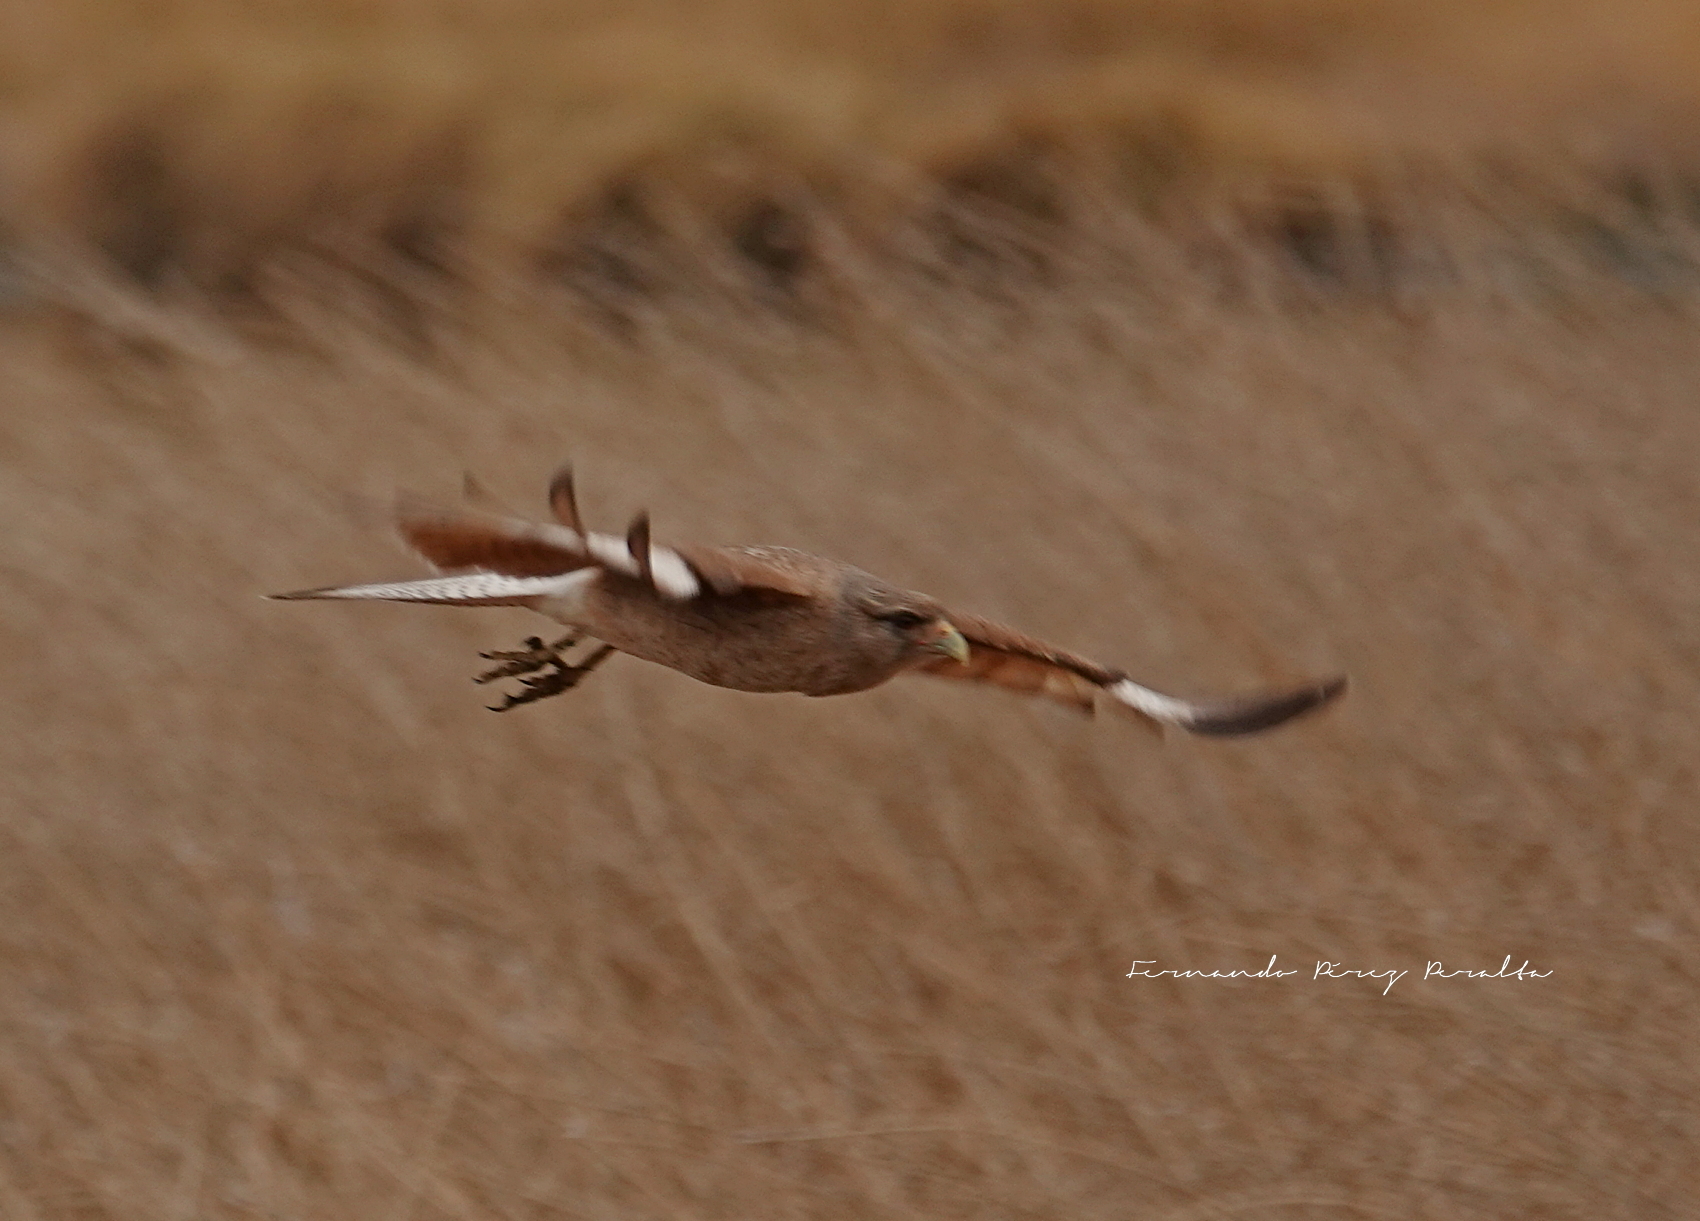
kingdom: Animalia
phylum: Chordata
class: Aves
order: Falconiformes
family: Falconidae
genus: Daptrius
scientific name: Daptrius
